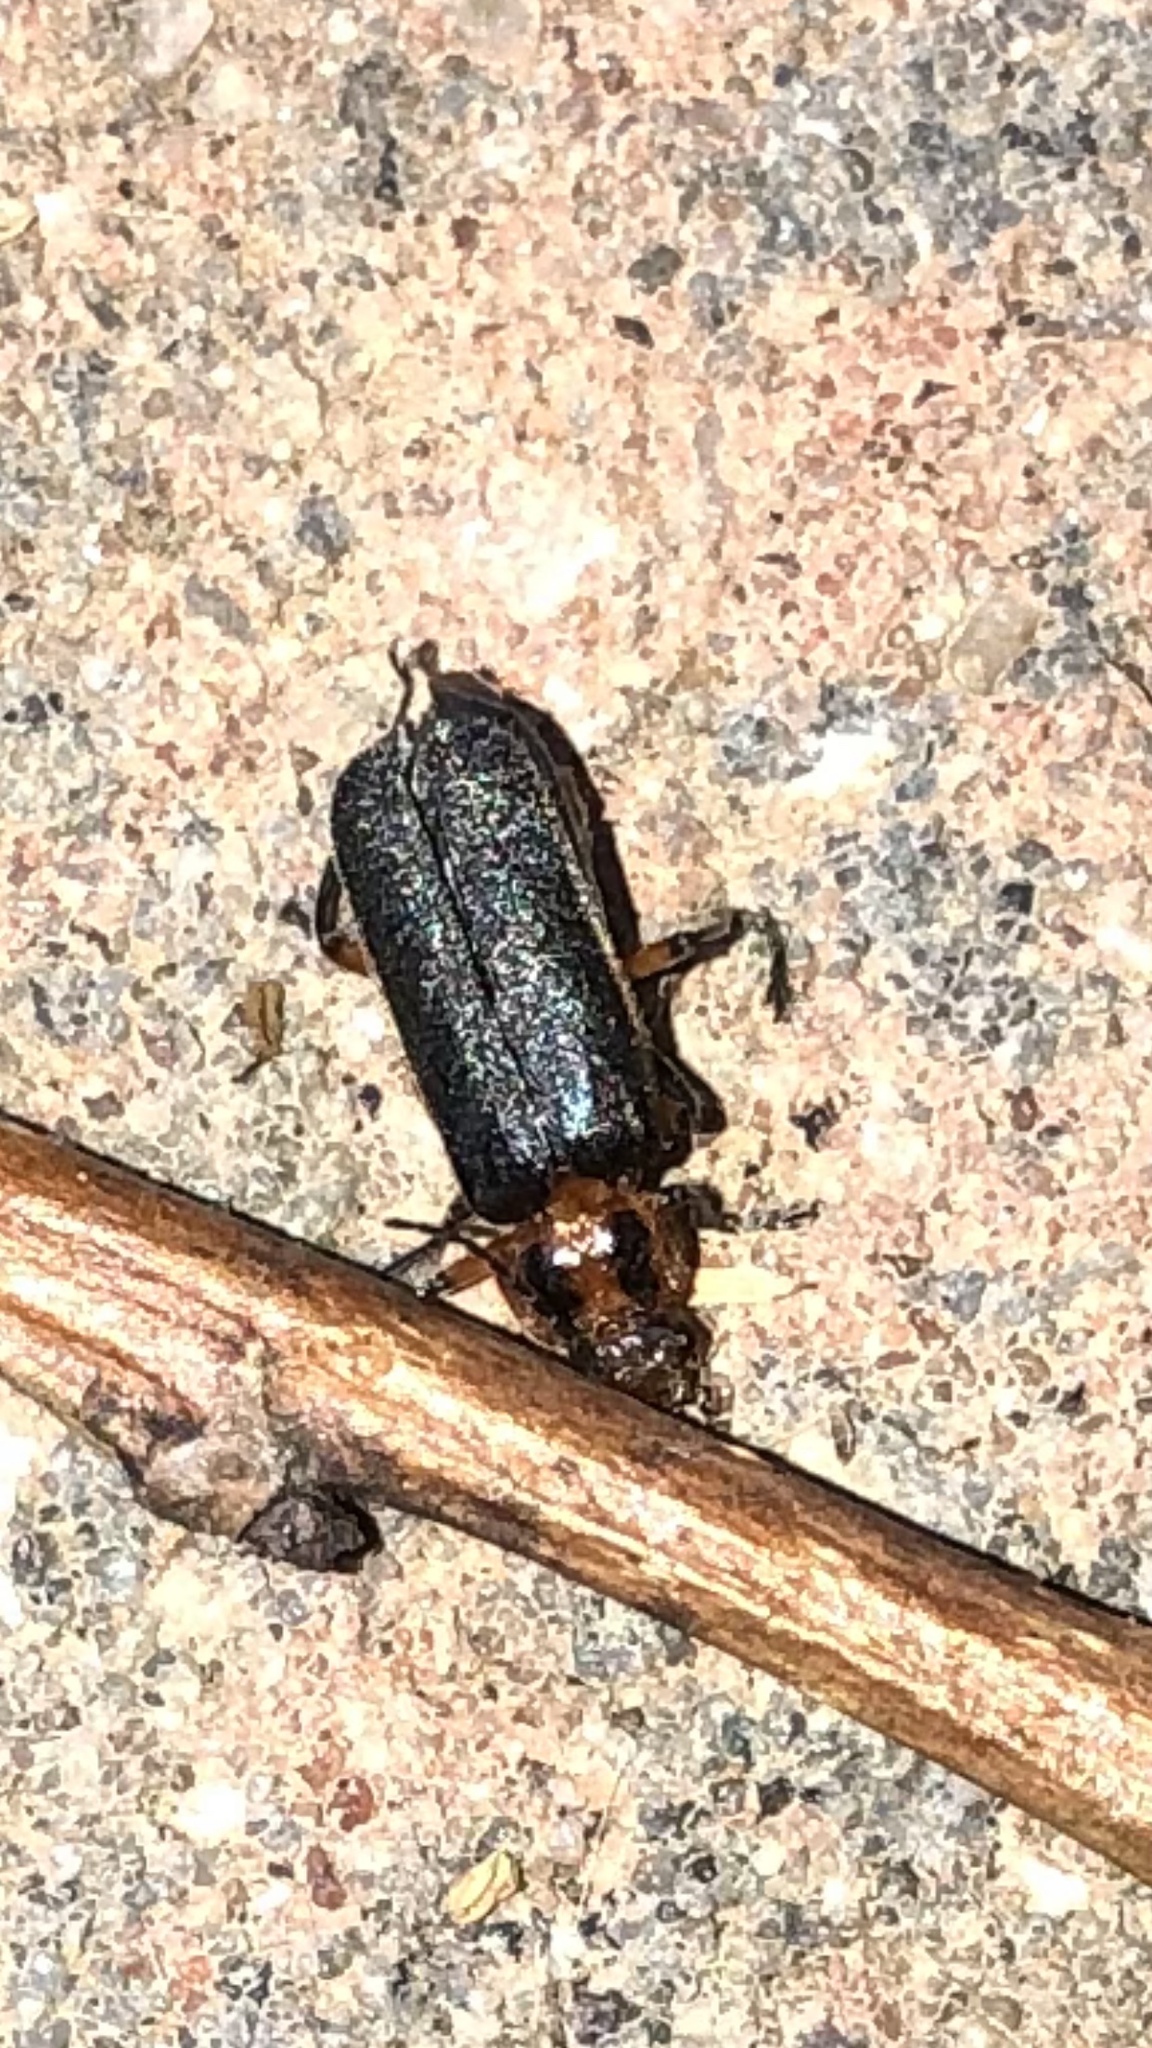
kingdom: Animalia
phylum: Arthropoda
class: Insecta
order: Coleoptera
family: Cantharidae
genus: Atalantycha
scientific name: Atalantycha bilineata
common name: Two-lined leatherwing
